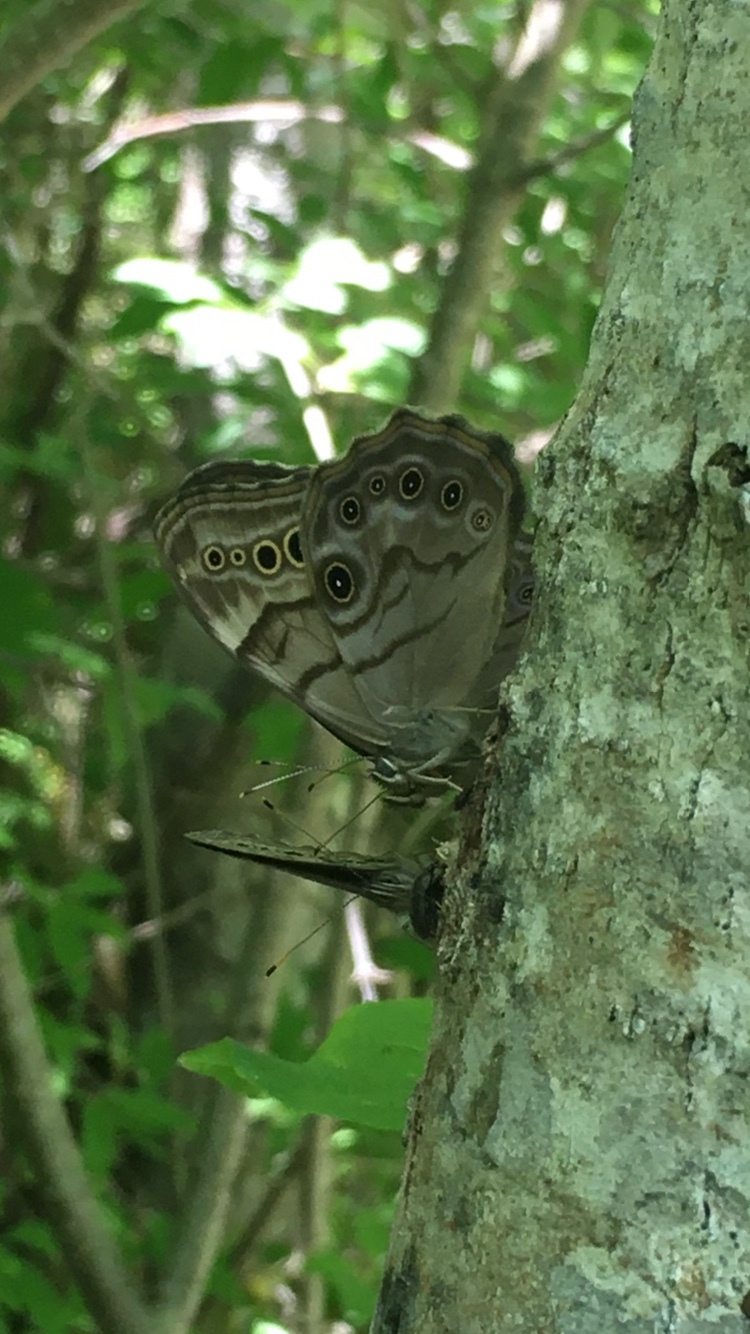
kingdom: Animalia
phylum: Arthropoda
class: Insecta
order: Lepidoptera
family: Nymphalidae
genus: Lethe
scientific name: Lethe anthedon
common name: Northern pearly-eye
